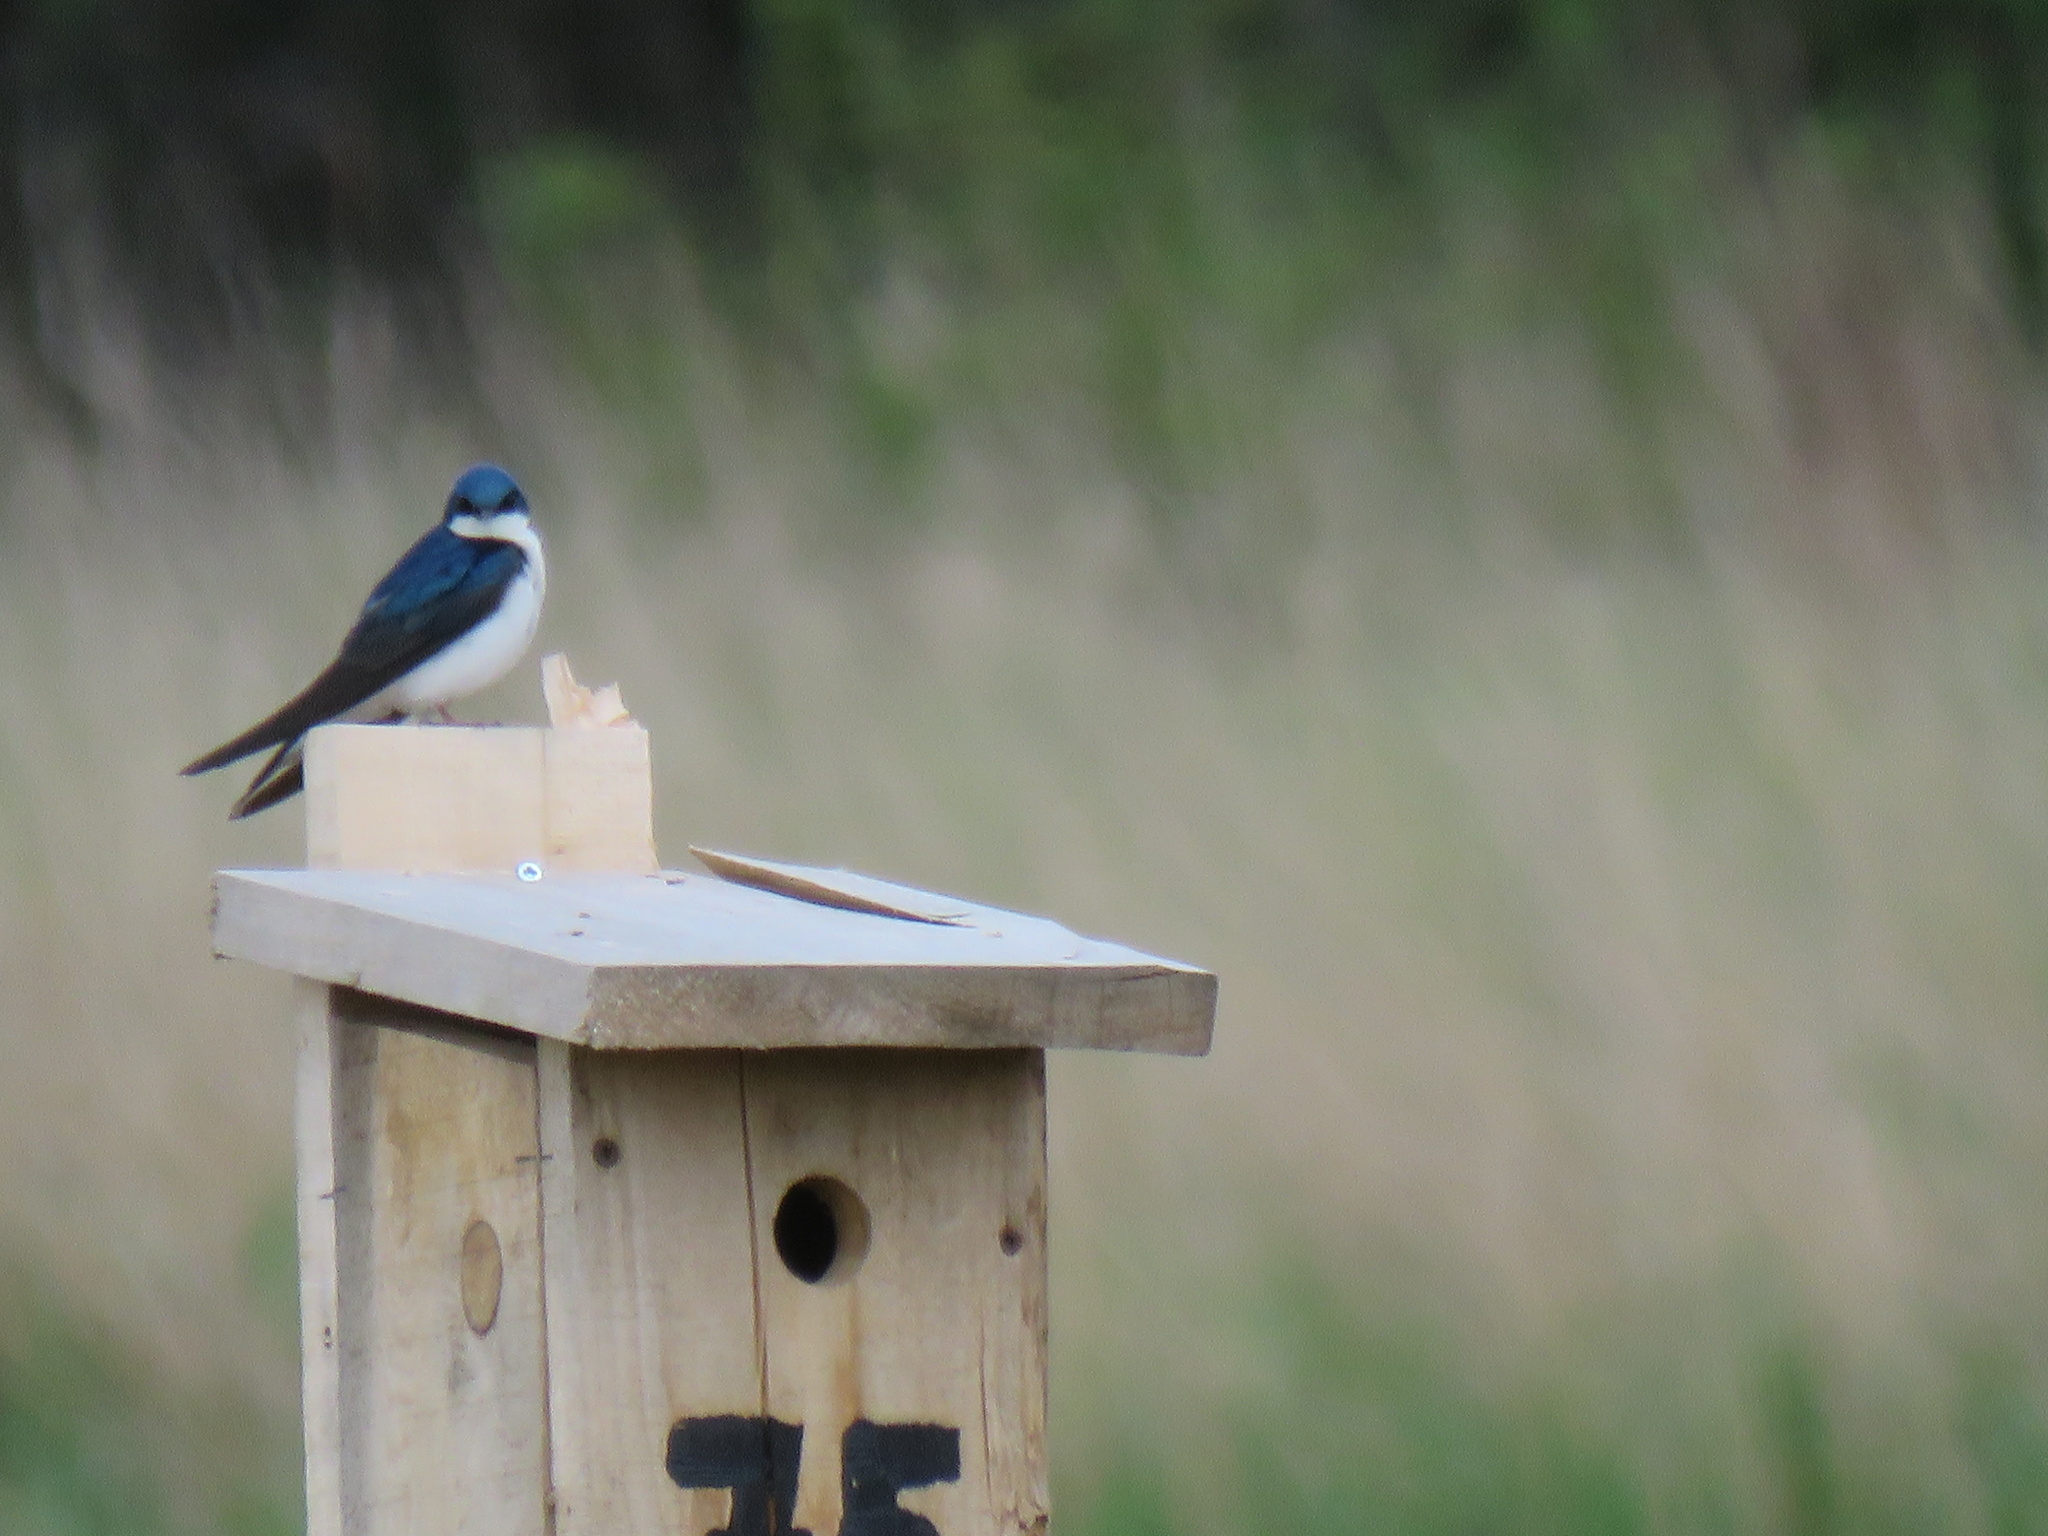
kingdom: Animalia
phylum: Chordata
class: Aves
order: Passeriformes
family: Hirundinidae
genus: Tachycineta
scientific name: Tachycineta bicolor
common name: Tree swallow
